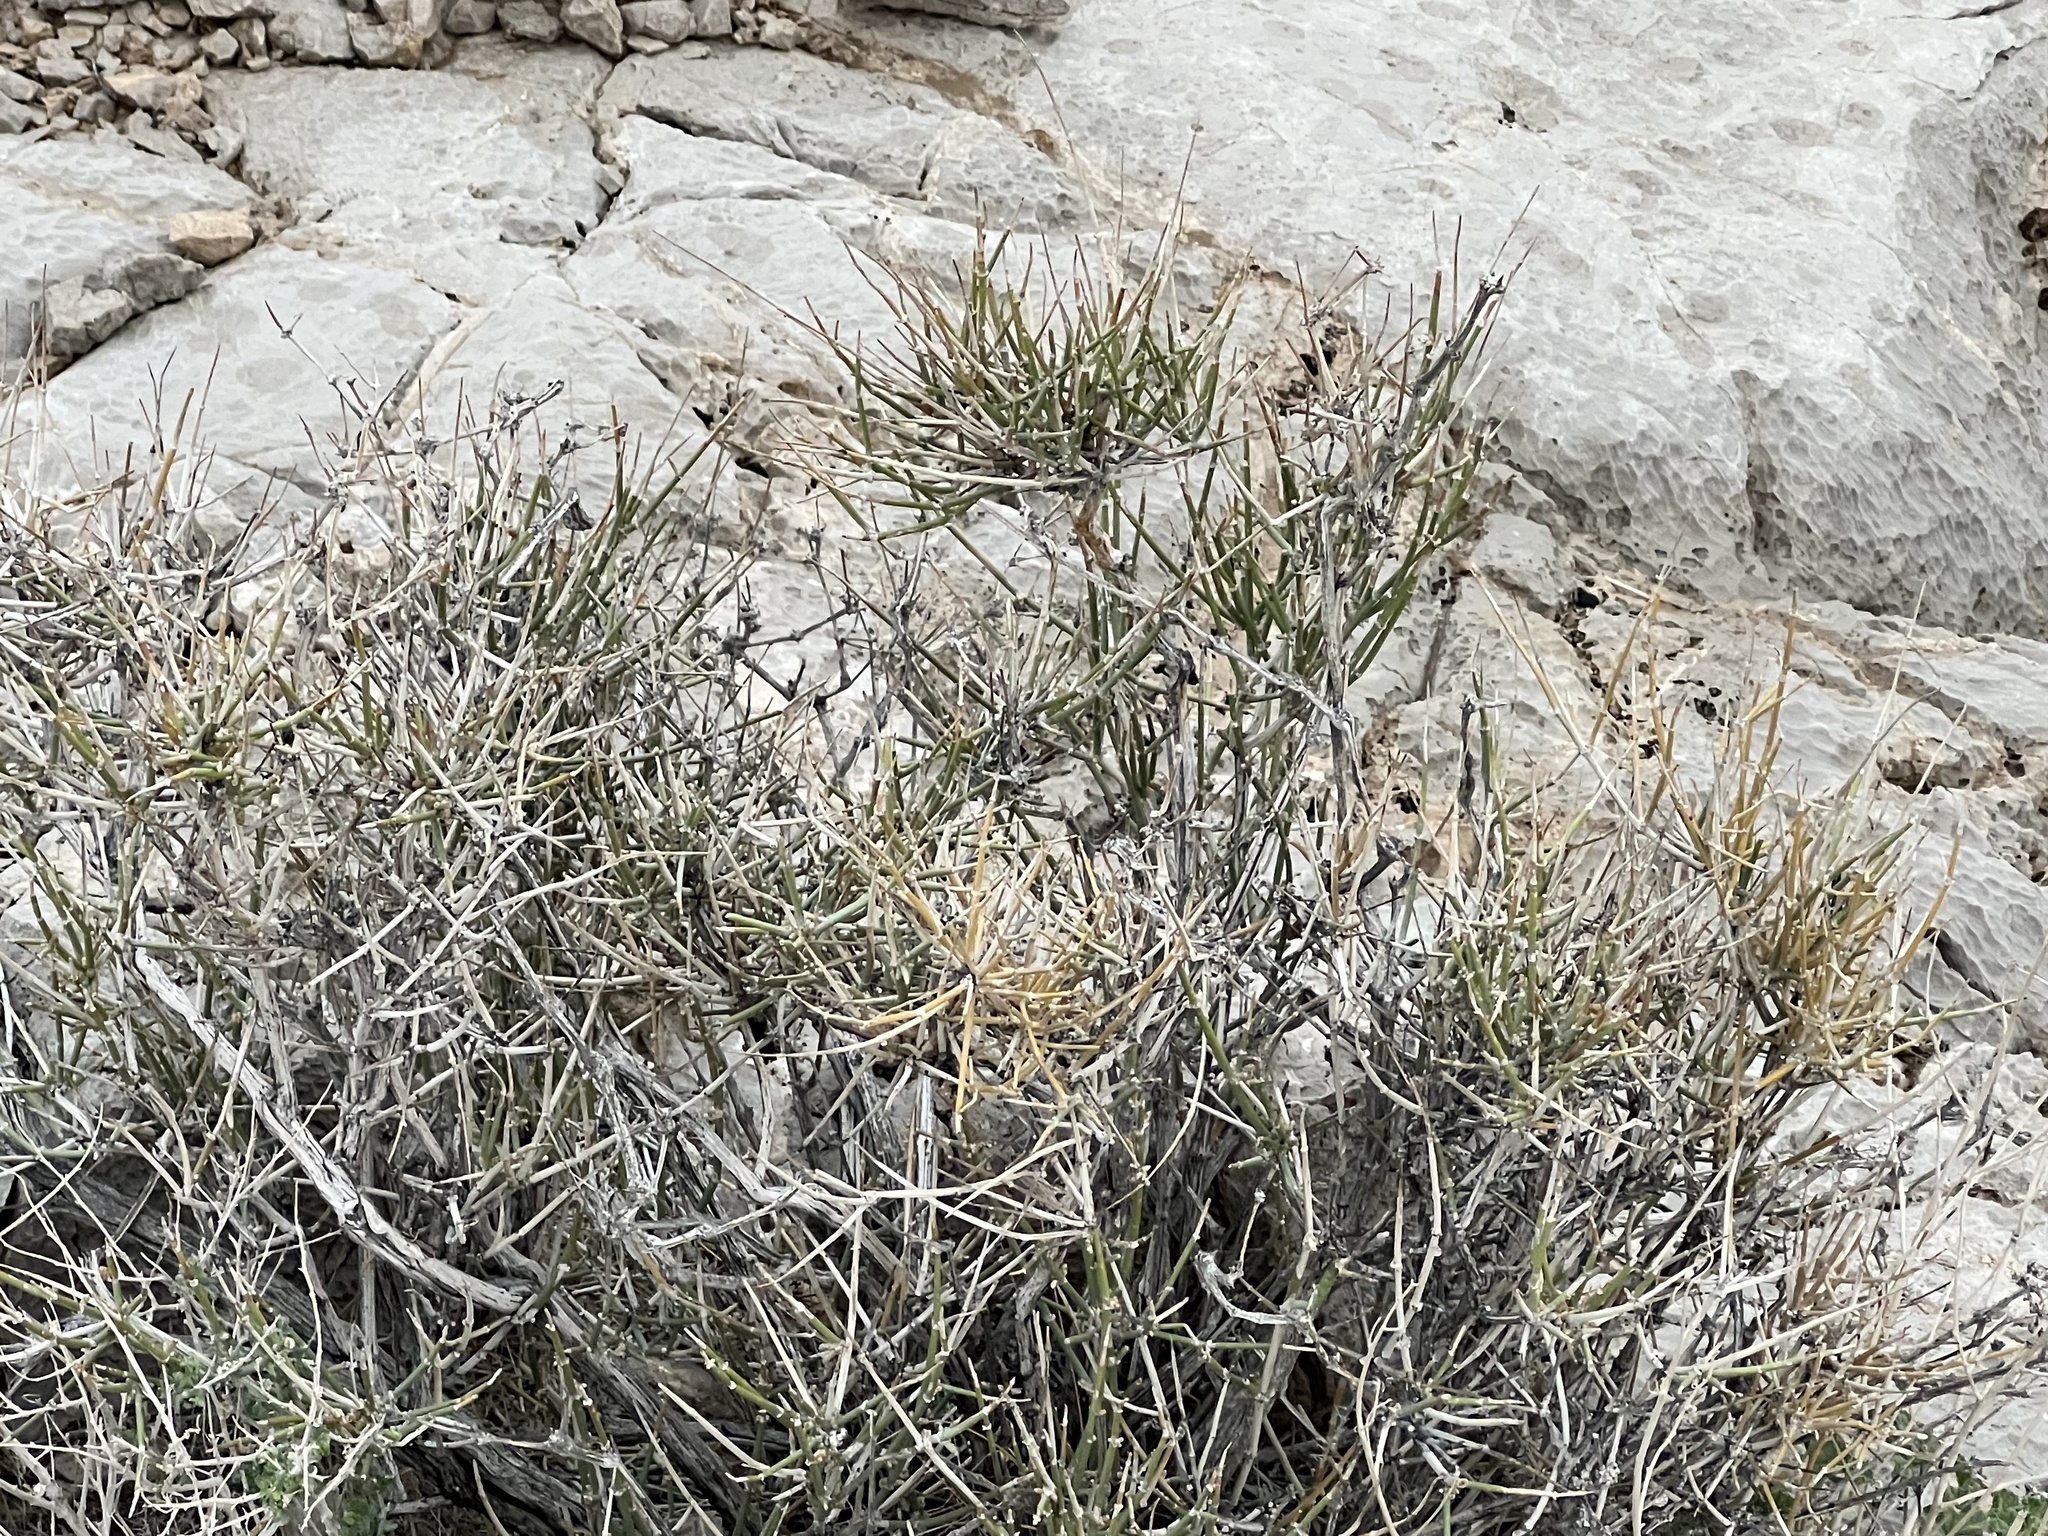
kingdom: Plantae
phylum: Tracheophyta
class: Gnetopsida
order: Ephedrales
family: Ephedraceae
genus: Ephedra
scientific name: Ephedra nevadensis
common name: Gray ephedra
